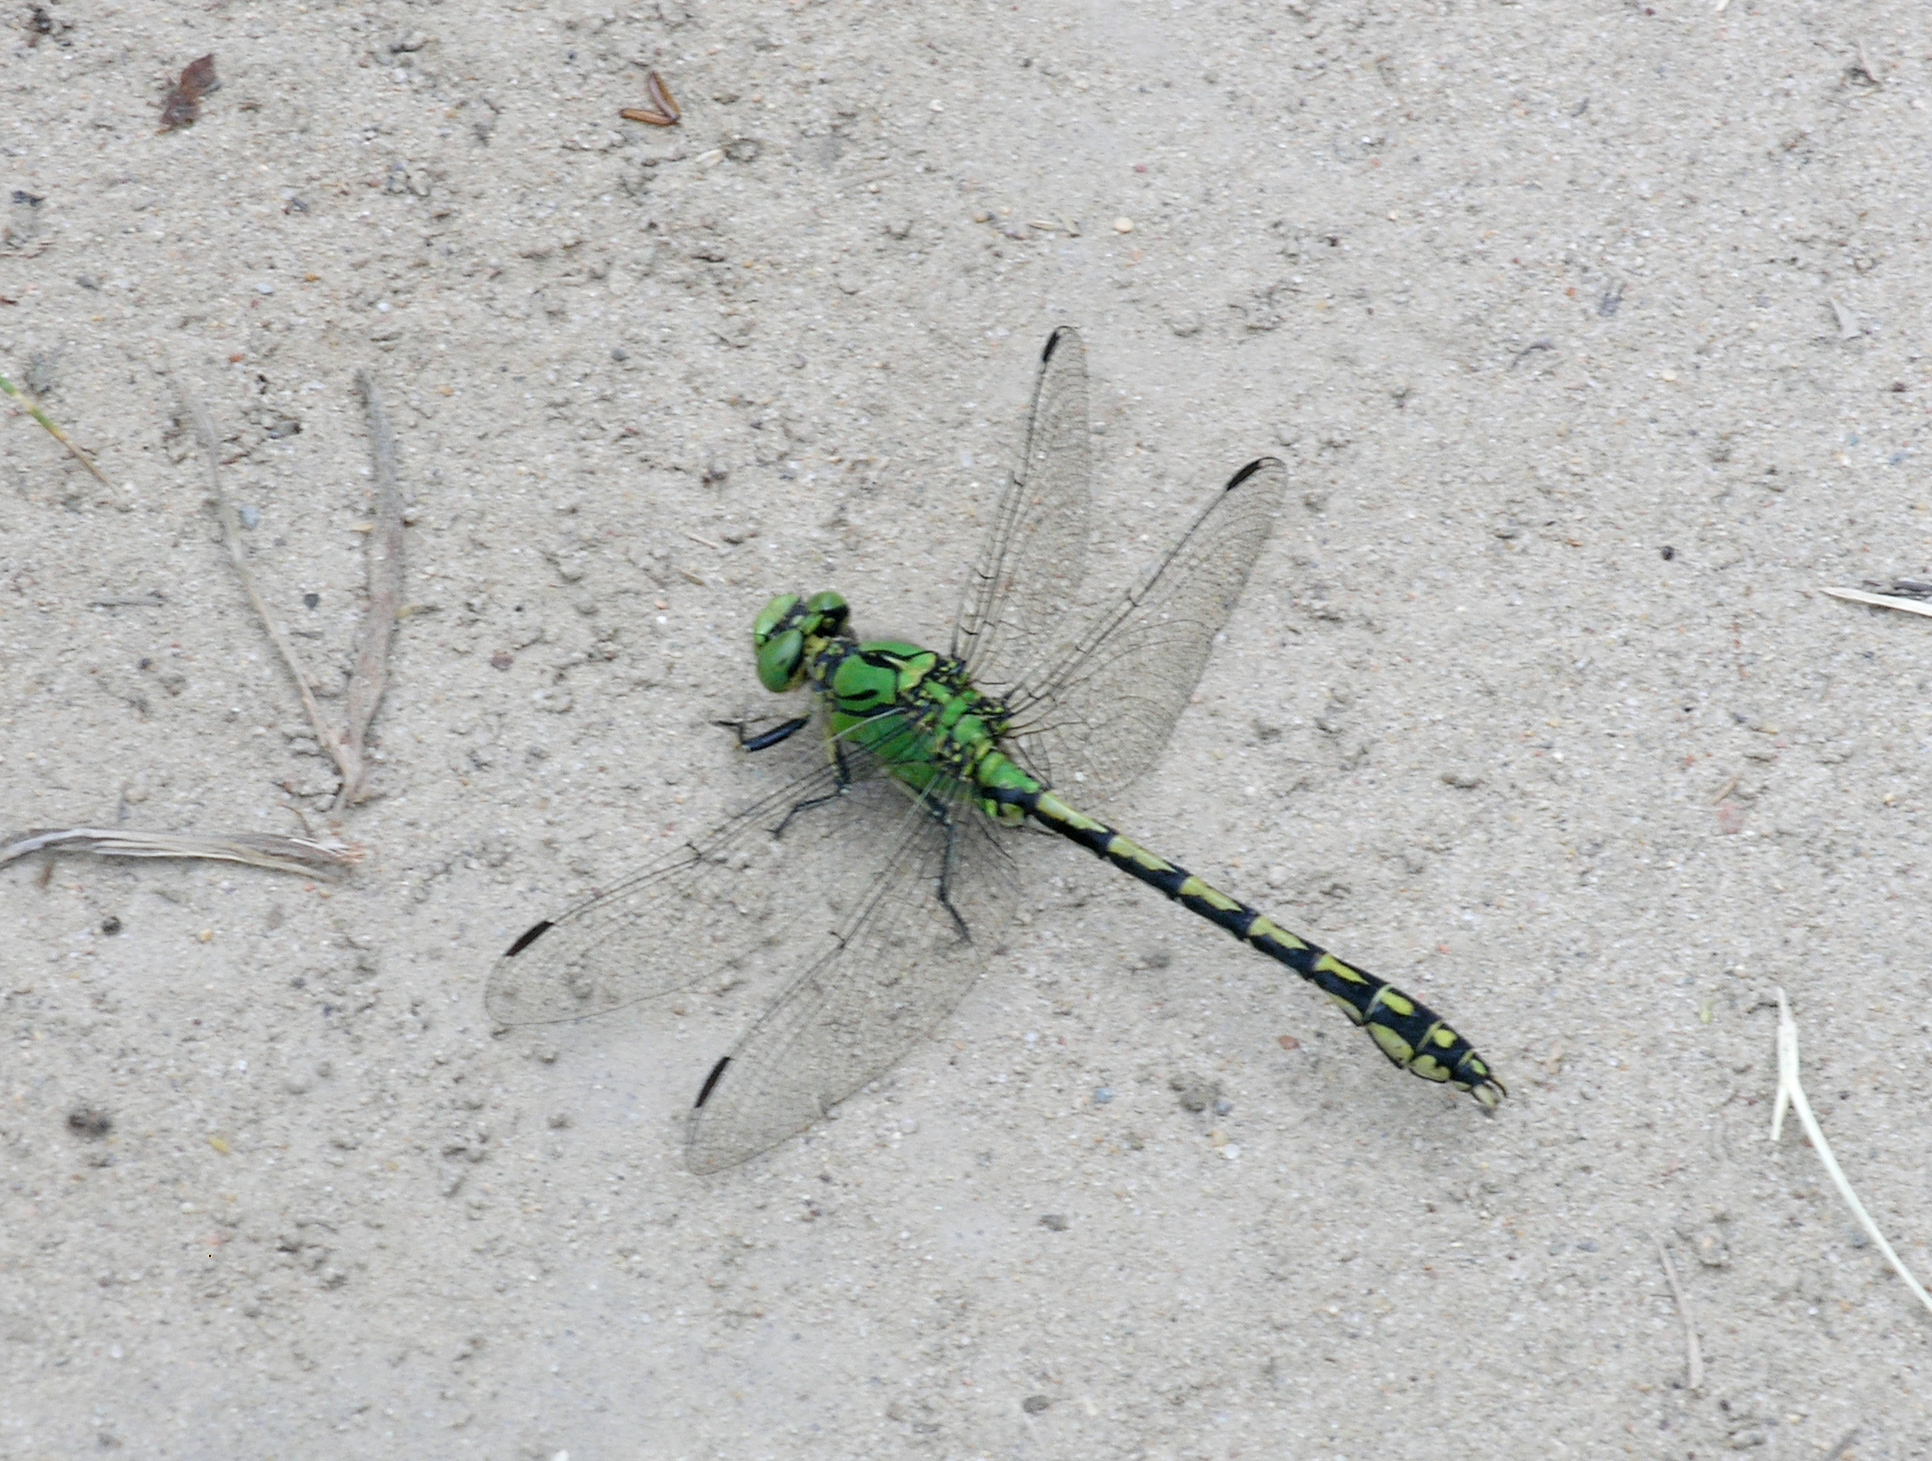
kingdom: Animalia
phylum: Arthropoda
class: Insecta
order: Odonata
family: Gomphidae
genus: Ophiogomphus
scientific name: Ophiogomphus cecilia
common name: Green snaketail
